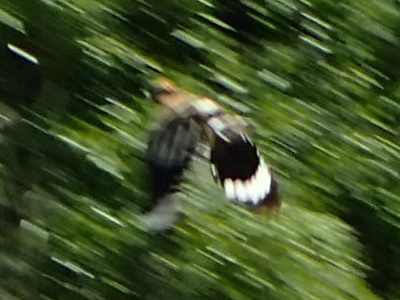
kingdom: Animalia
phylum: Chordata
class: Aves
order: Bucerotiformes
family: Upupidae
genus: Upupa
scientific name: Upupa epops
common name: Eurasian hoopoe
